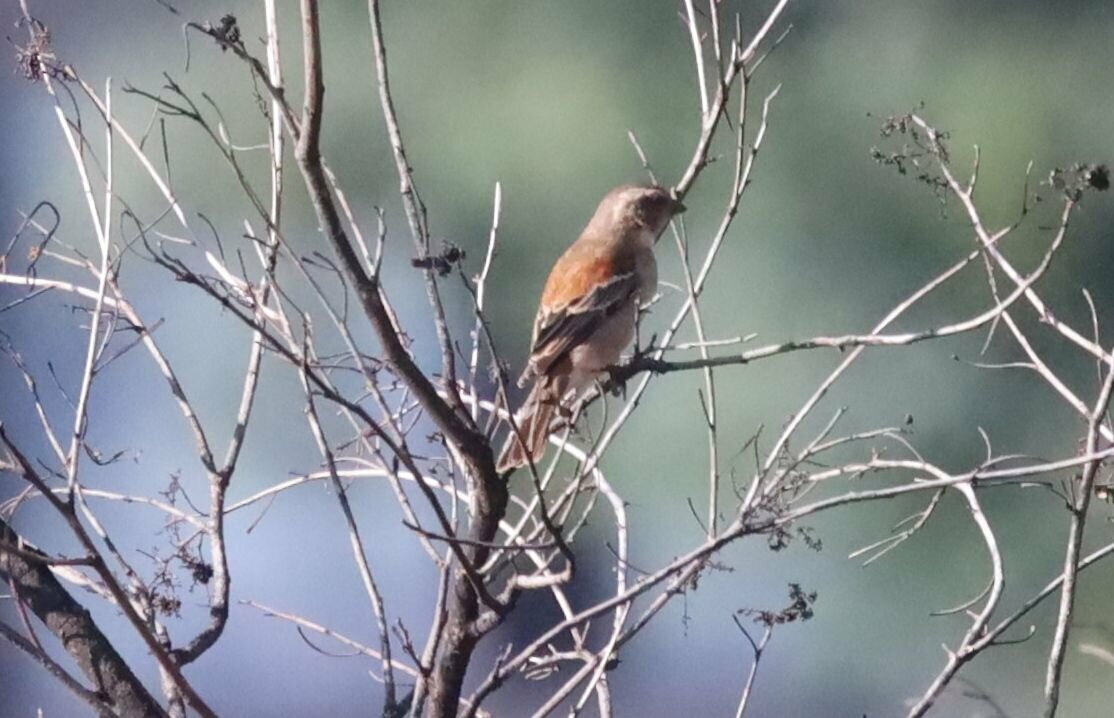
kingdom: Animalia
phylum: Chordata
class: Aves
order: Passeriformes
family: Passeridae
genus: Passer
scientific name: Passer melanurus
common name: Cape sparrow
